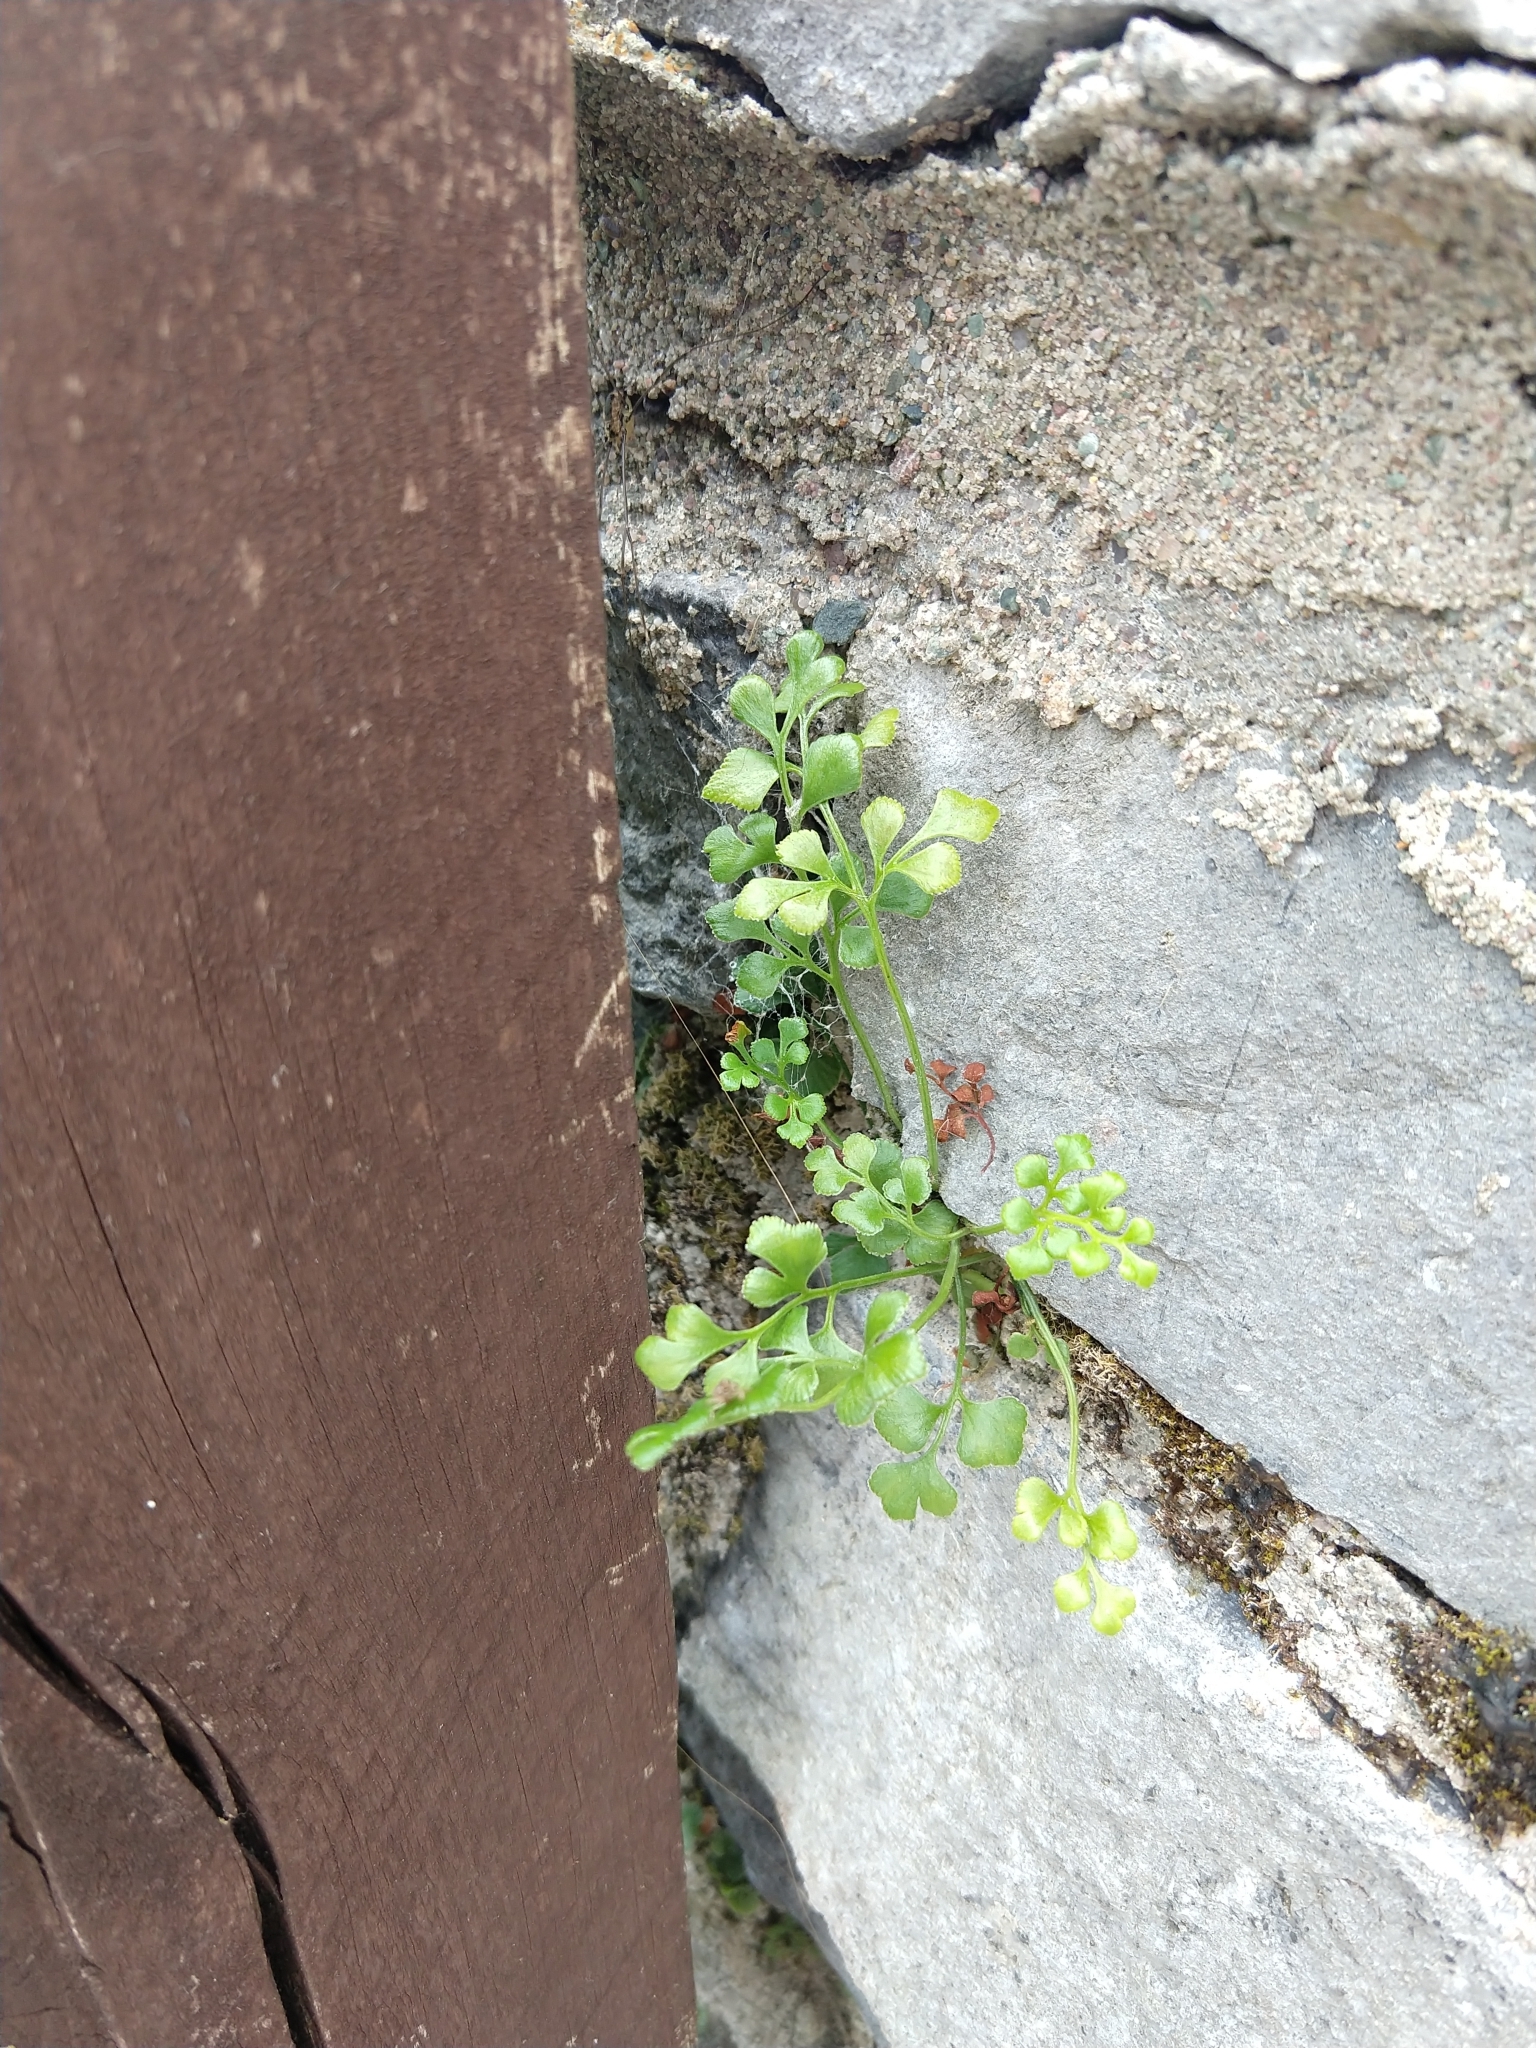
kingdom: Plantae
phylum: Tracheophyta
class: Polypodiopsida
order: Polypodiales
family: Aspleniaceae
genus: Asplenium
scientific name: Asplenium ruta-muraria
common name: Wall-rue
